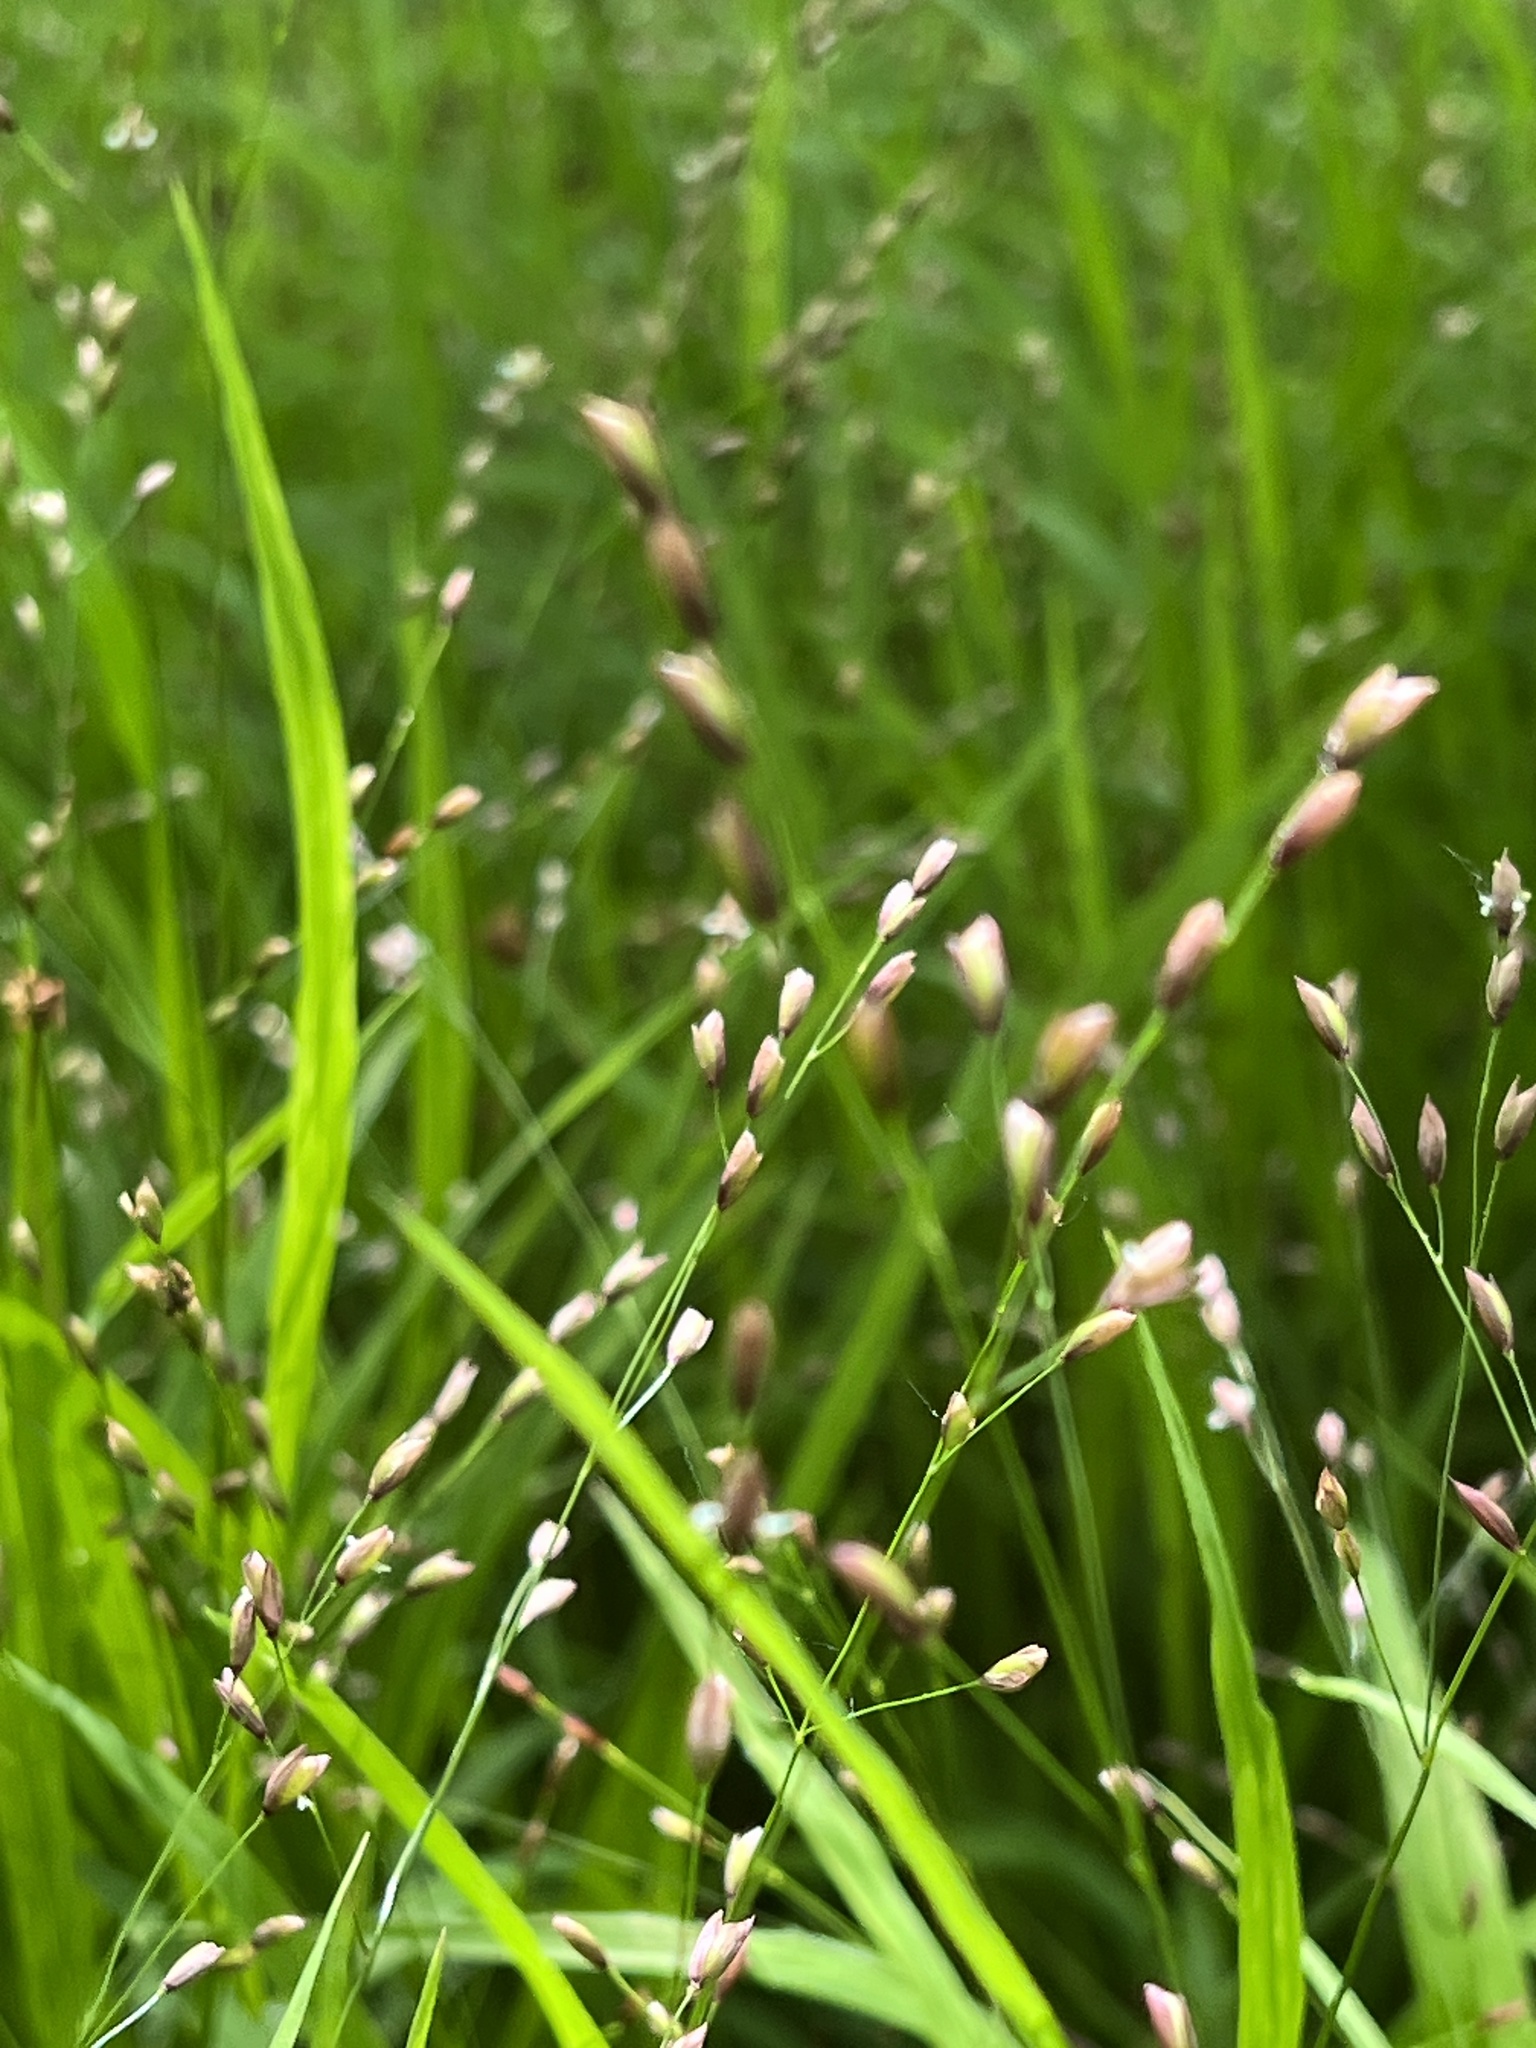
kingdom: Plantae
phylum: Tracheophyta
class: Liliopsida
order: Poales
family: Poaceae
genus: Melica
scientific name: Melica uniflora
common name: Wood melick
